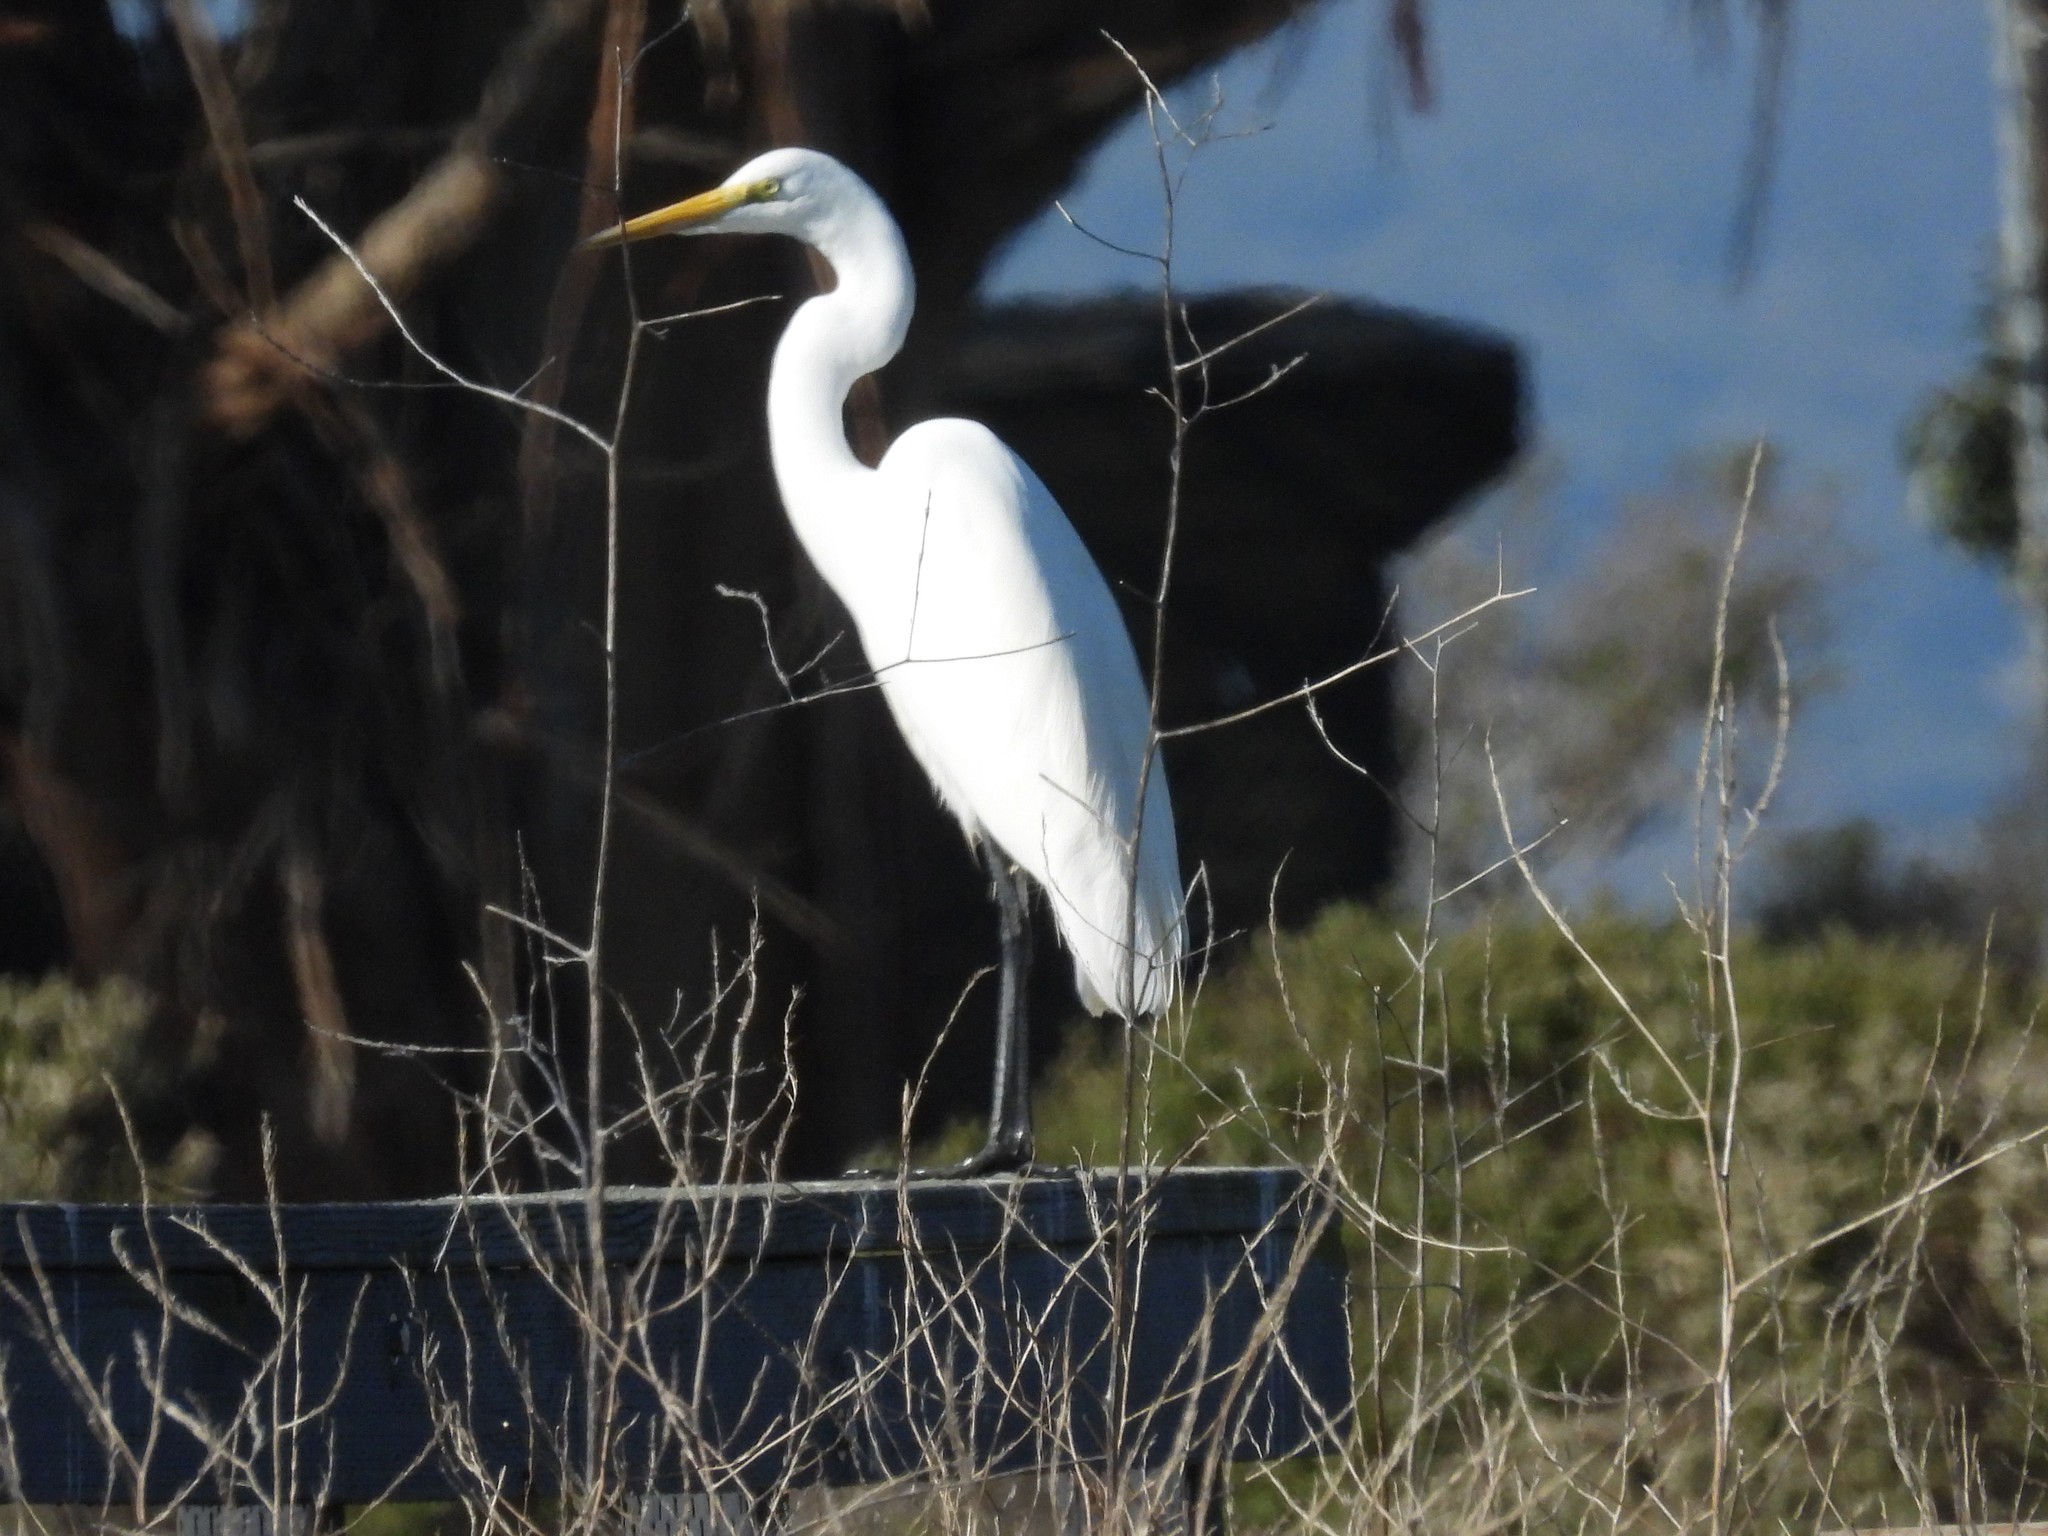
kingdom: Animalia
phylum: Chordata
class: Aves
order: Pelecaniformes
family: Ardeidae
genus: Ardea
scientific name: Ardea alba
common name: Great egret
